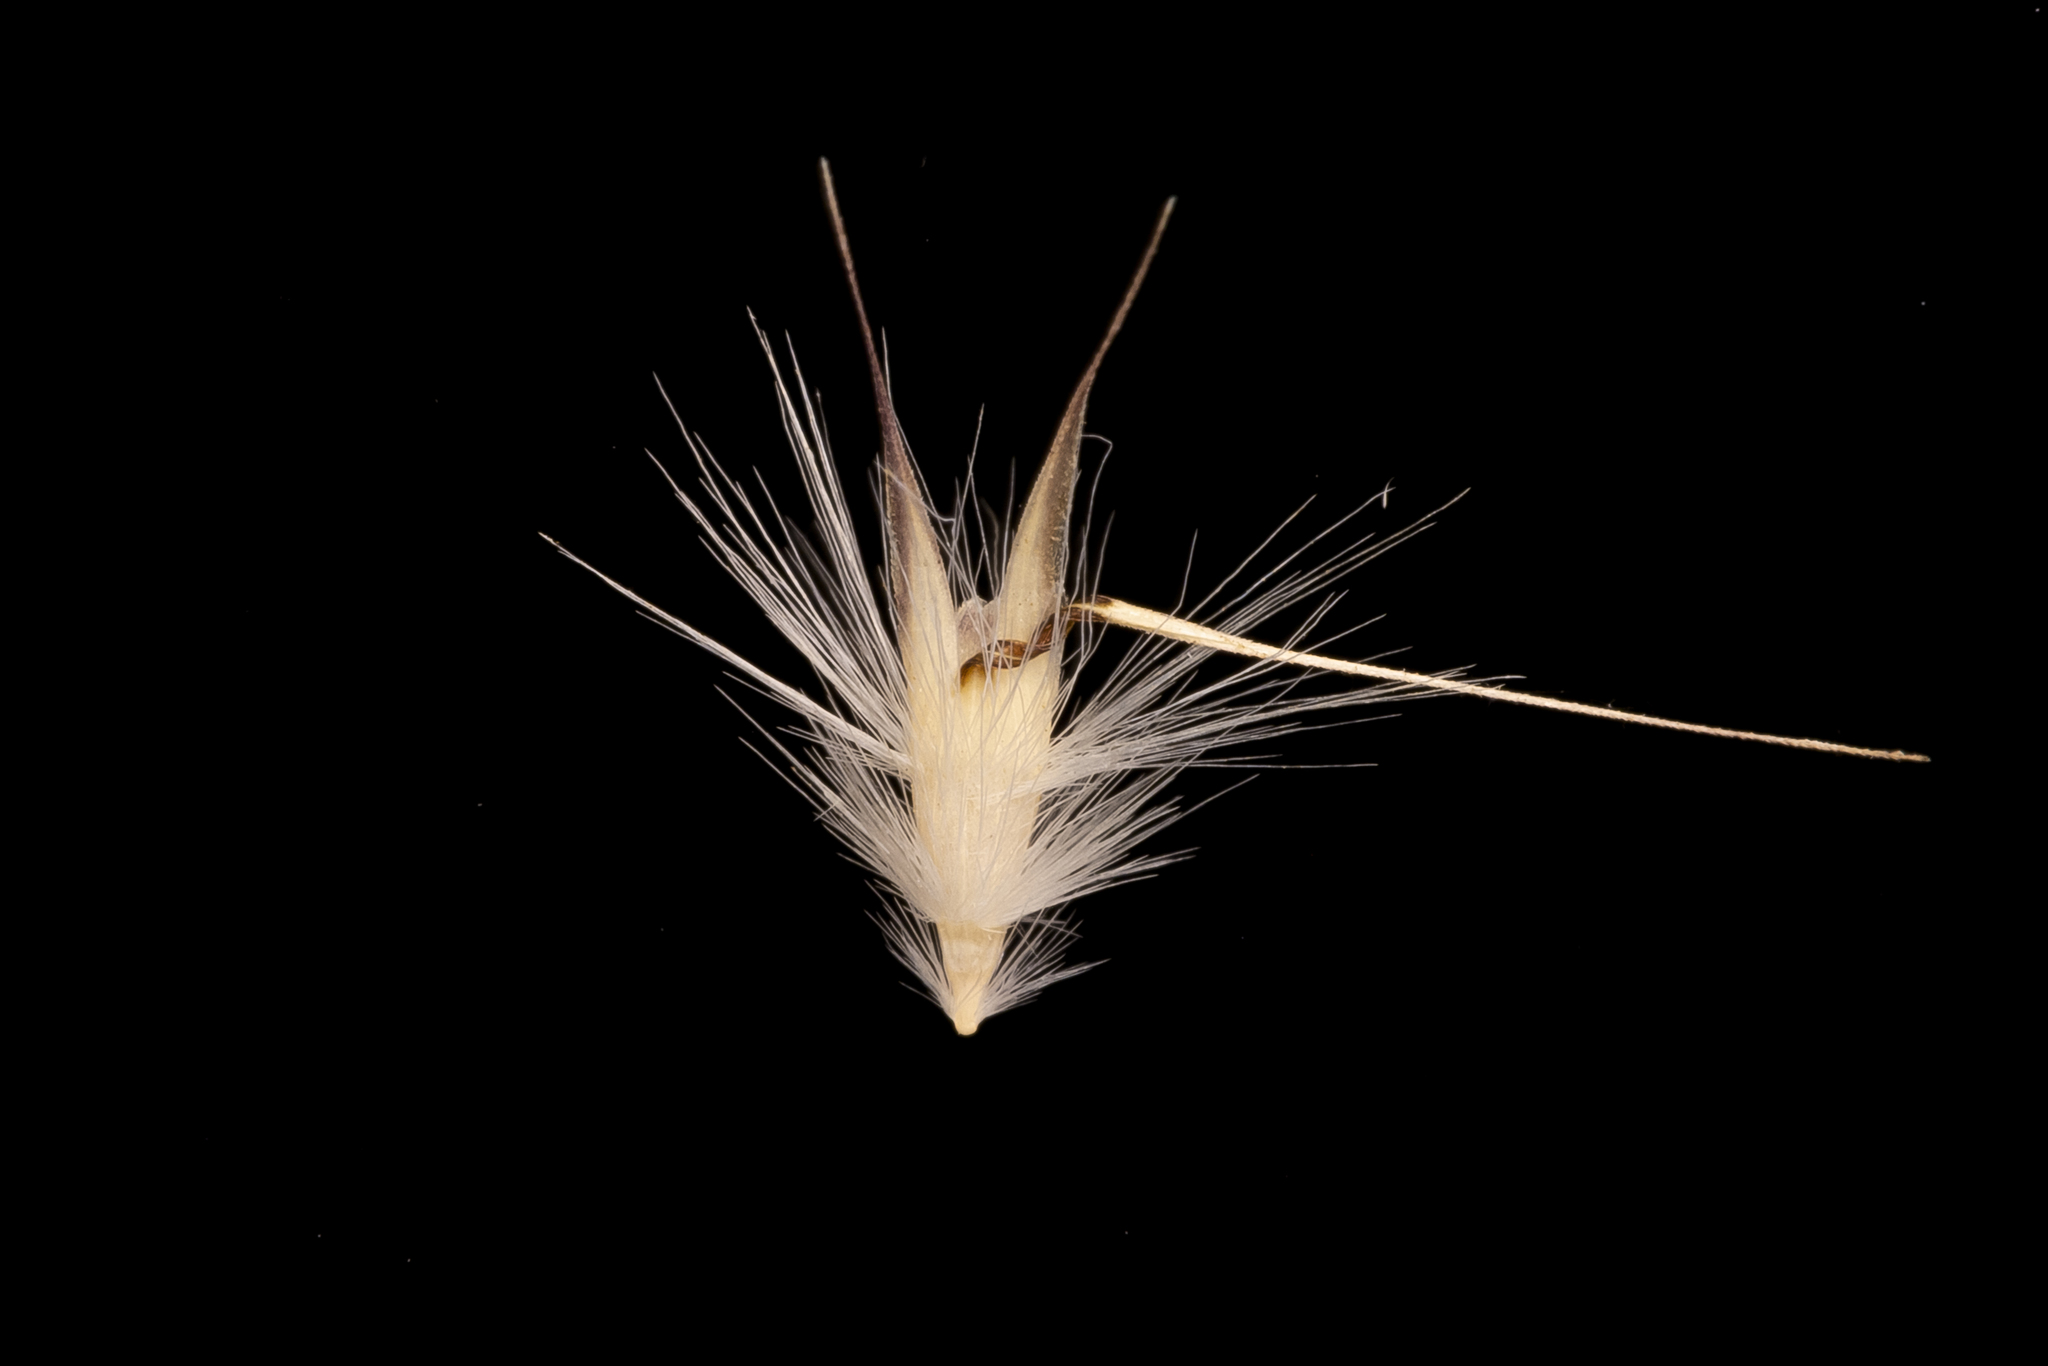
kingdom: Plantae
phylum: Tracheophyta
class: Liliopsida
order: Poales
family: Poaceae
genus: Rytidosperma
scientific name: Rytidosperma tenuius
